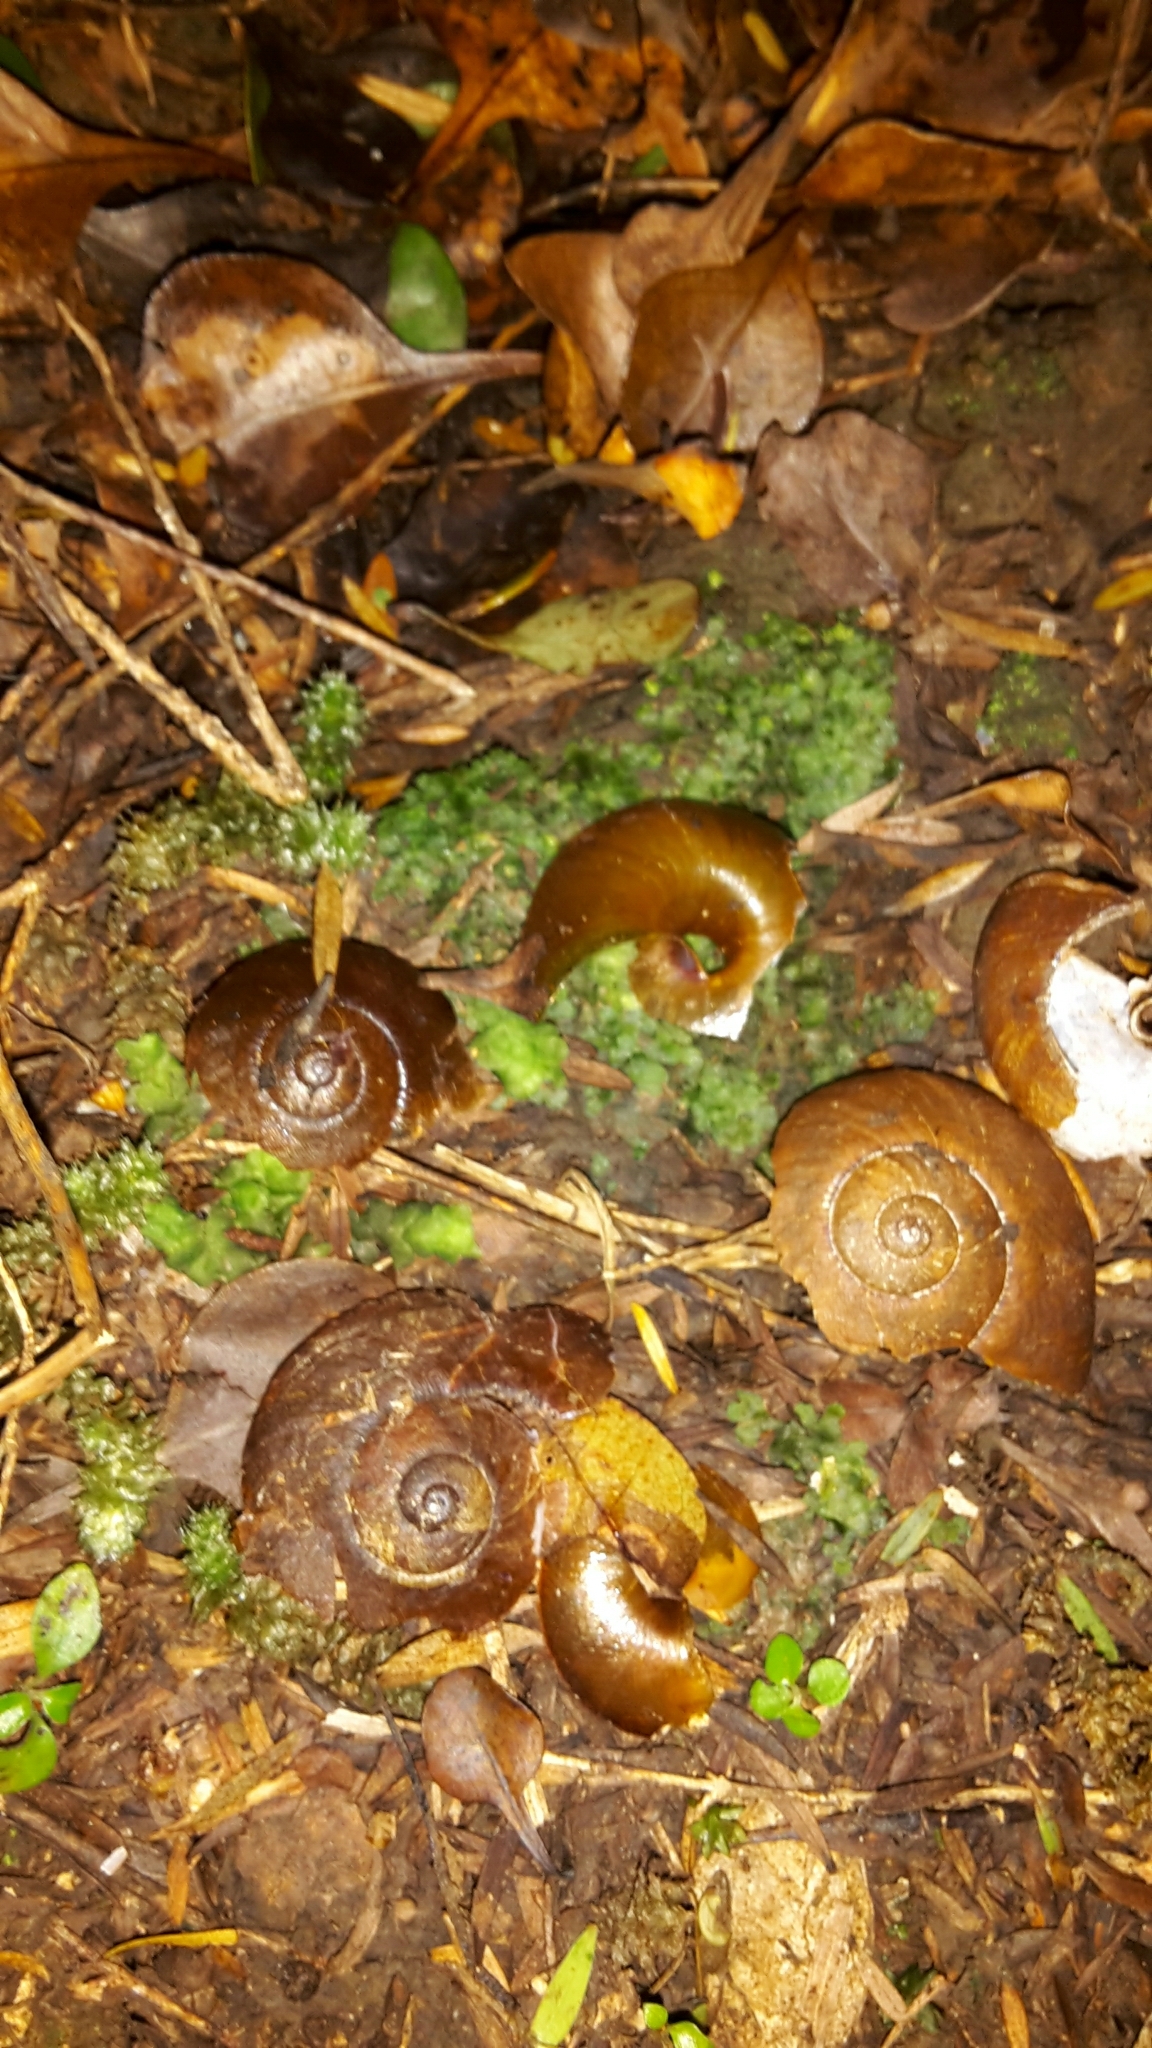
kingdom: Animalia
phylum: Mollusca
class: Gastropoda
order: Stylommatophora
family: Rhytididae
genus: Amborhytida
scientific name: Amborhytida dunniae
